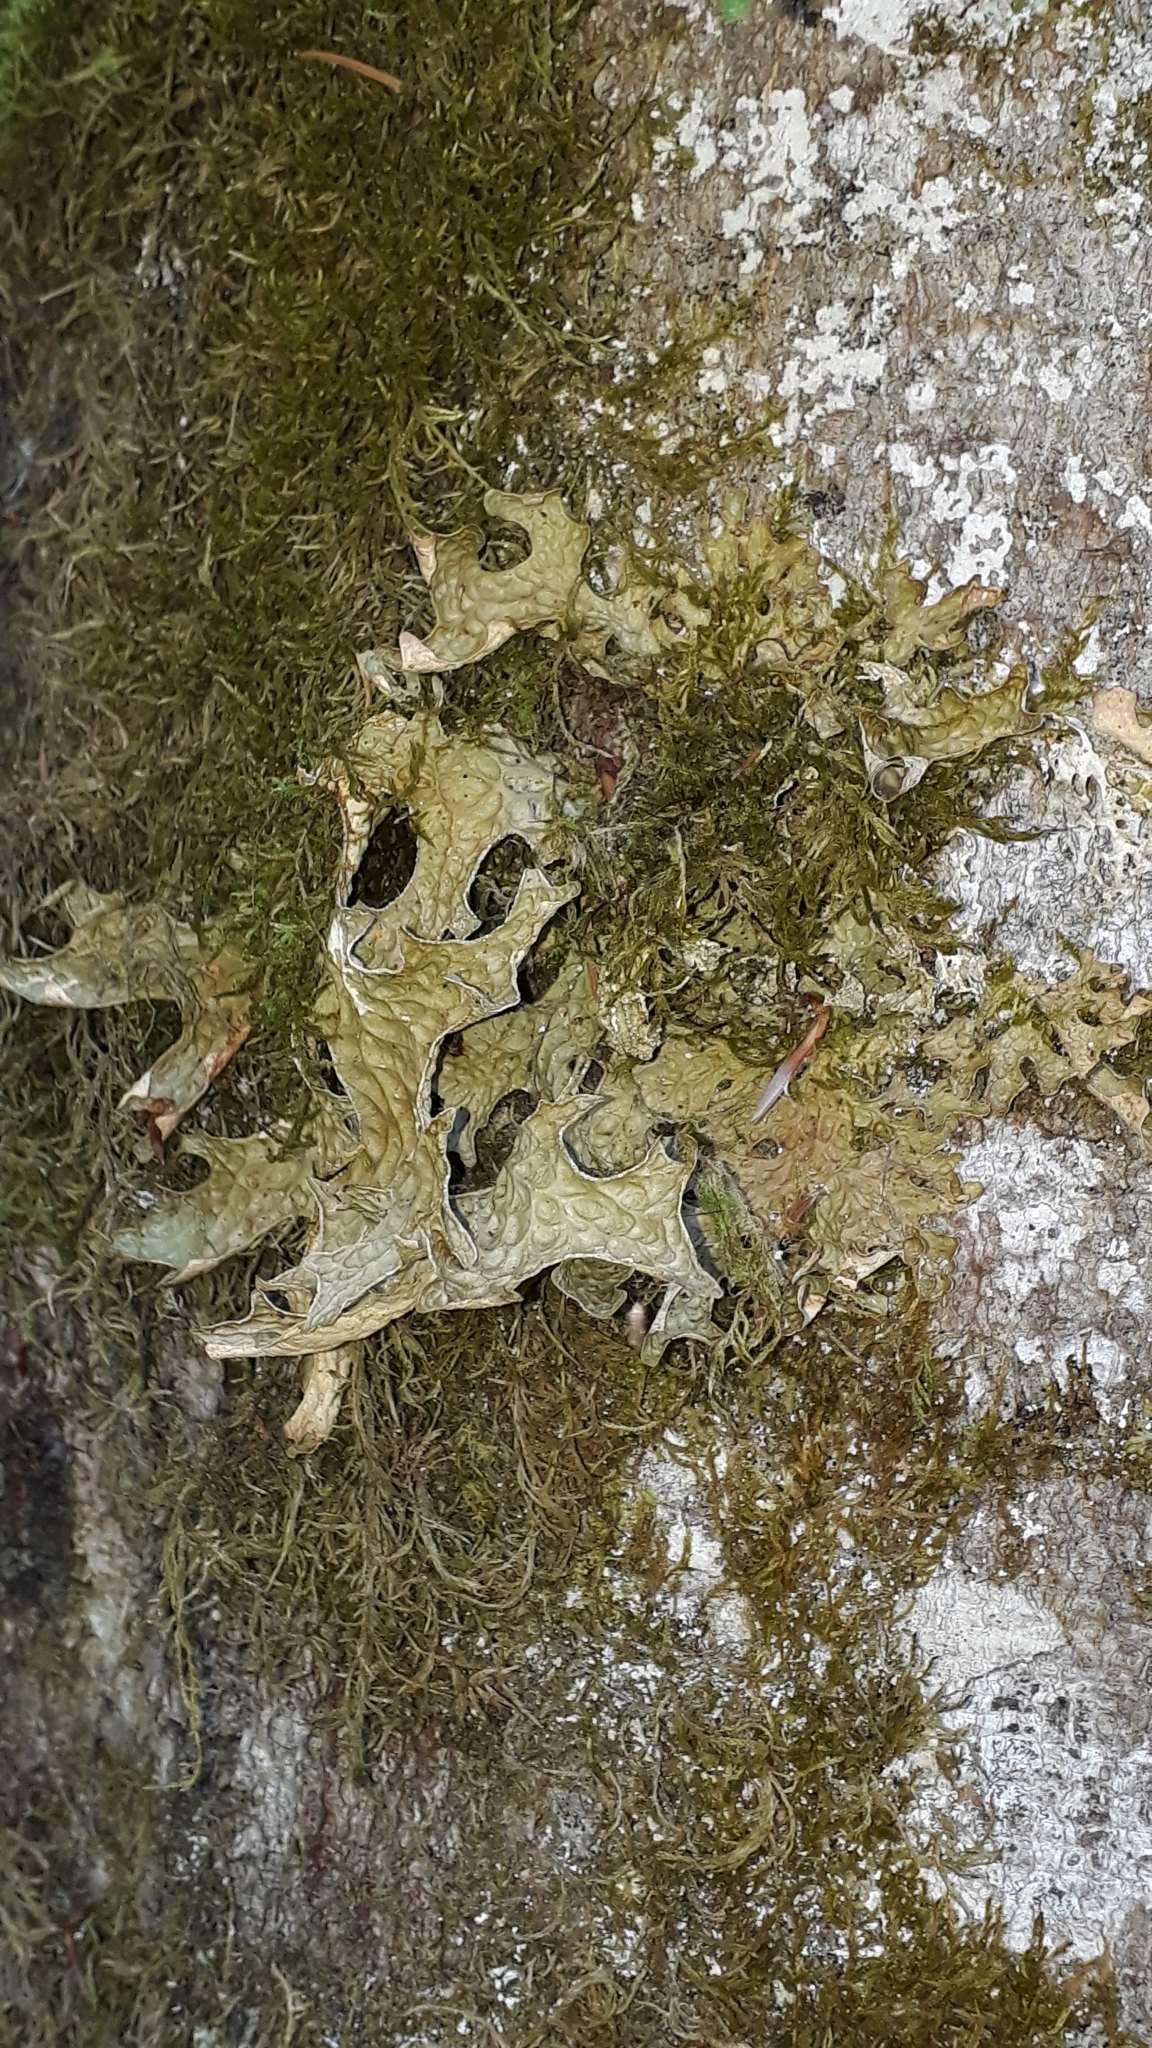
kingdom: Fungi
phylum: Ascomycota
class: Lecanoromycetes
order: Peltigerales
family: Lobariaceae
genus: Lobaria
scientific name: Lobaria pulmonaria
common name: Lungwort
